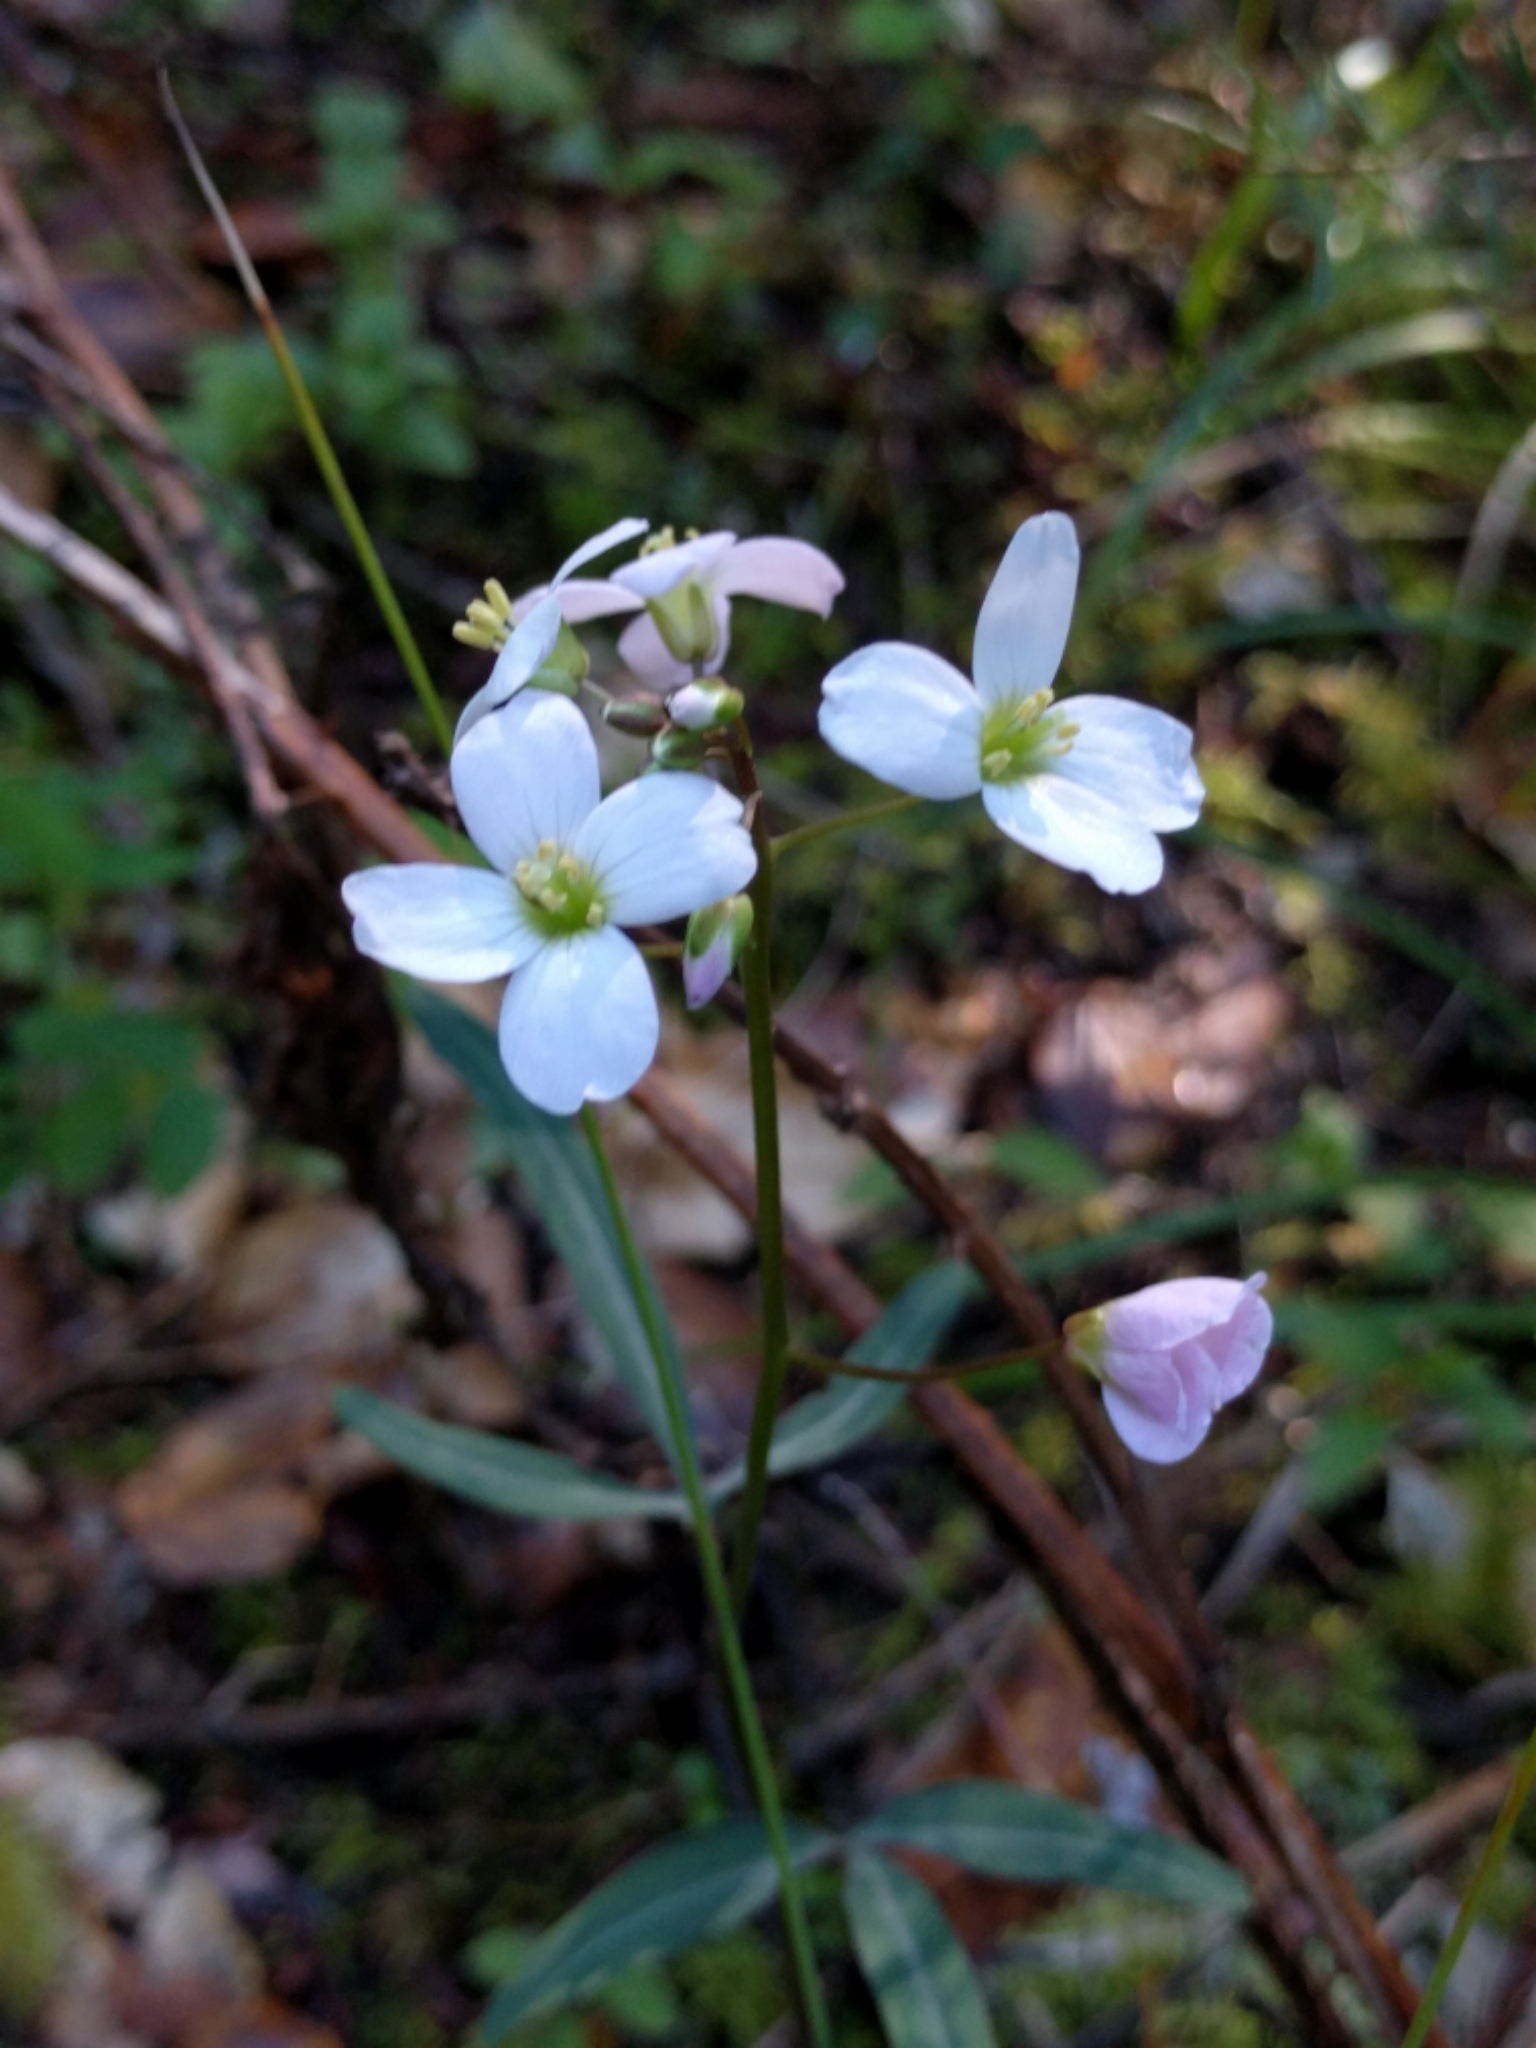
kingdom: Plantae
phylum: Tracheophyta
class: Magnoliopsida
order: Brassicales
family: Brassicaceae
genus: Cardamine
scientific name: Cardamine californica
